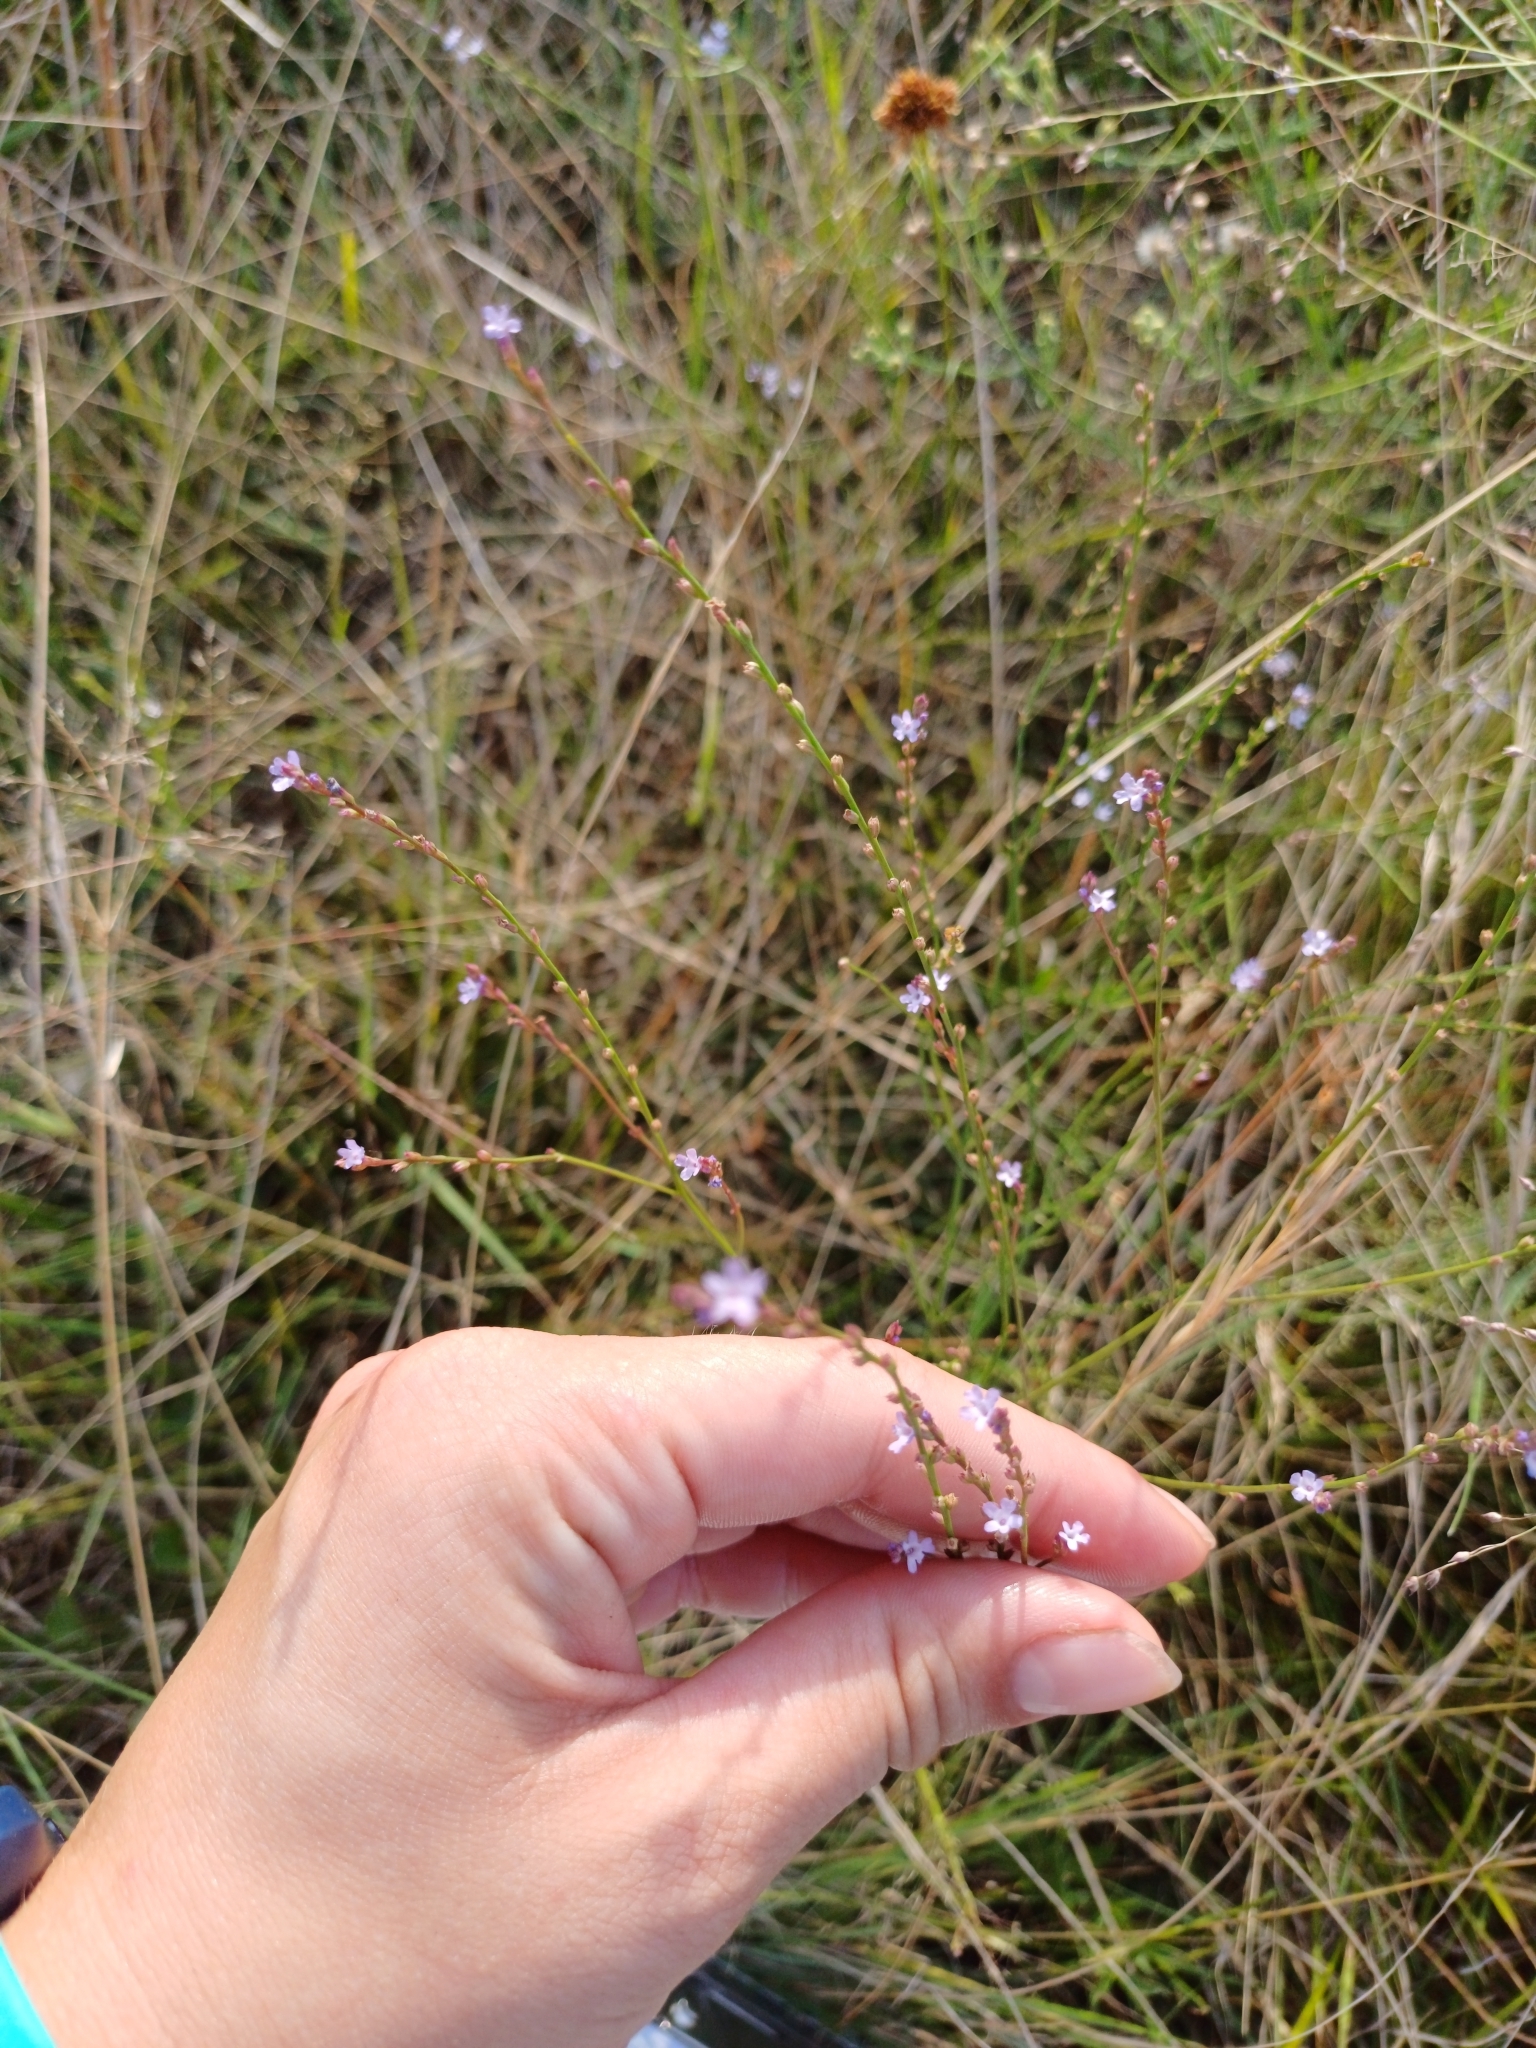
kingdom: Plantae
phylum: Tracheophyta
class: Magnoliopsida
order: Lamiales
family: Verbenaceae
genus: Verbena
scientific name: Verbena gracilescens
